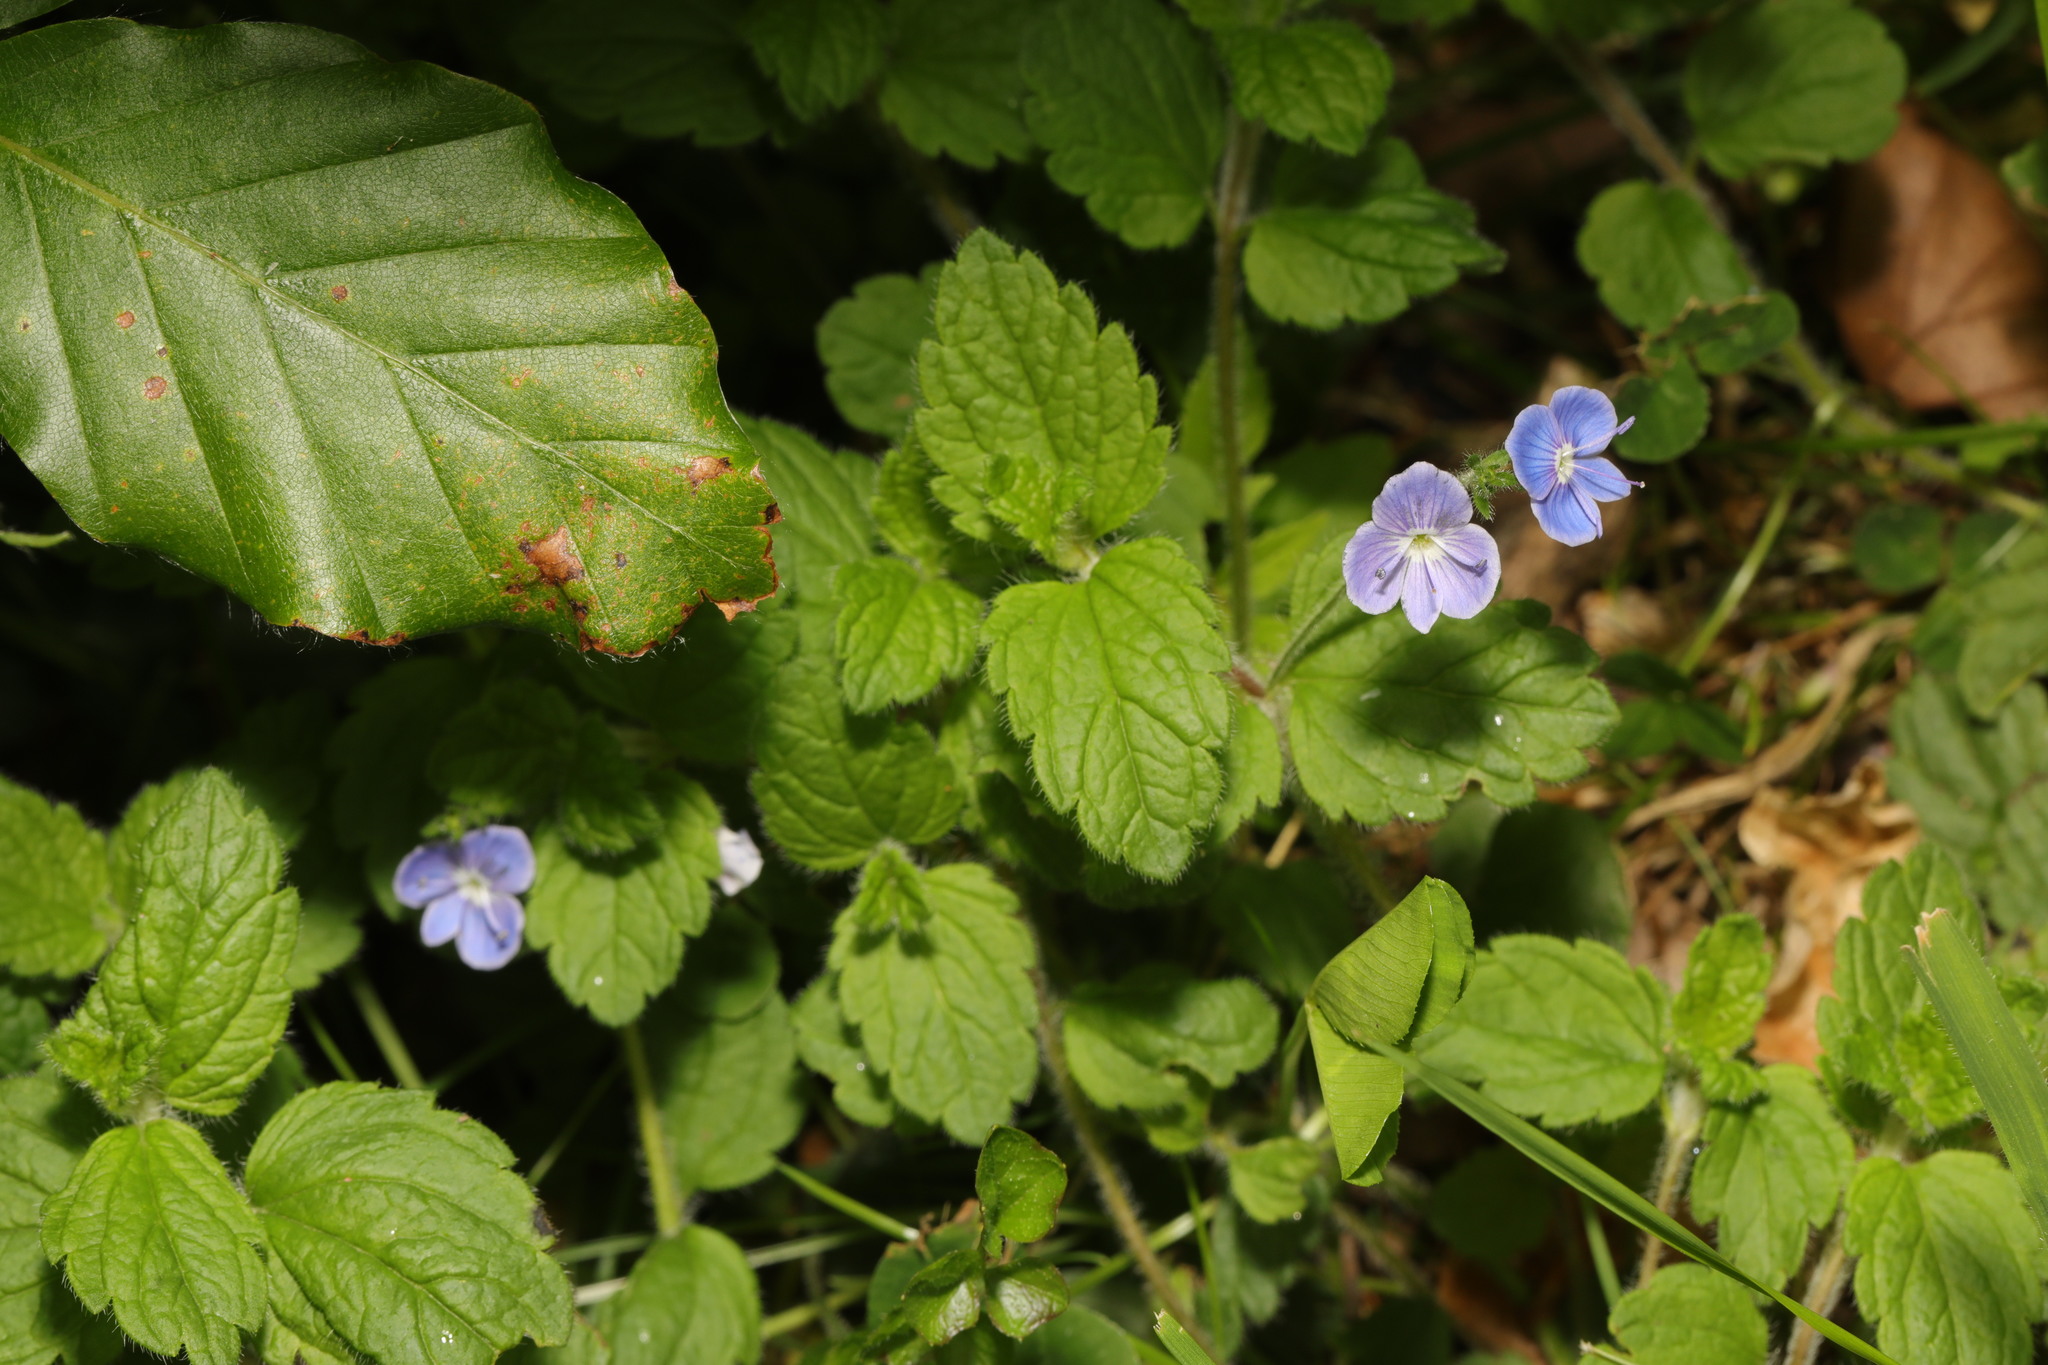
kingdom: Plantae
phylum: Tracheophyta
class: Magnoliopsida
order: Lamiales
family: Plantaginaceae
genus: Veronica
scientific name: Veronica chamaedrys
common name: Germander speedwell
